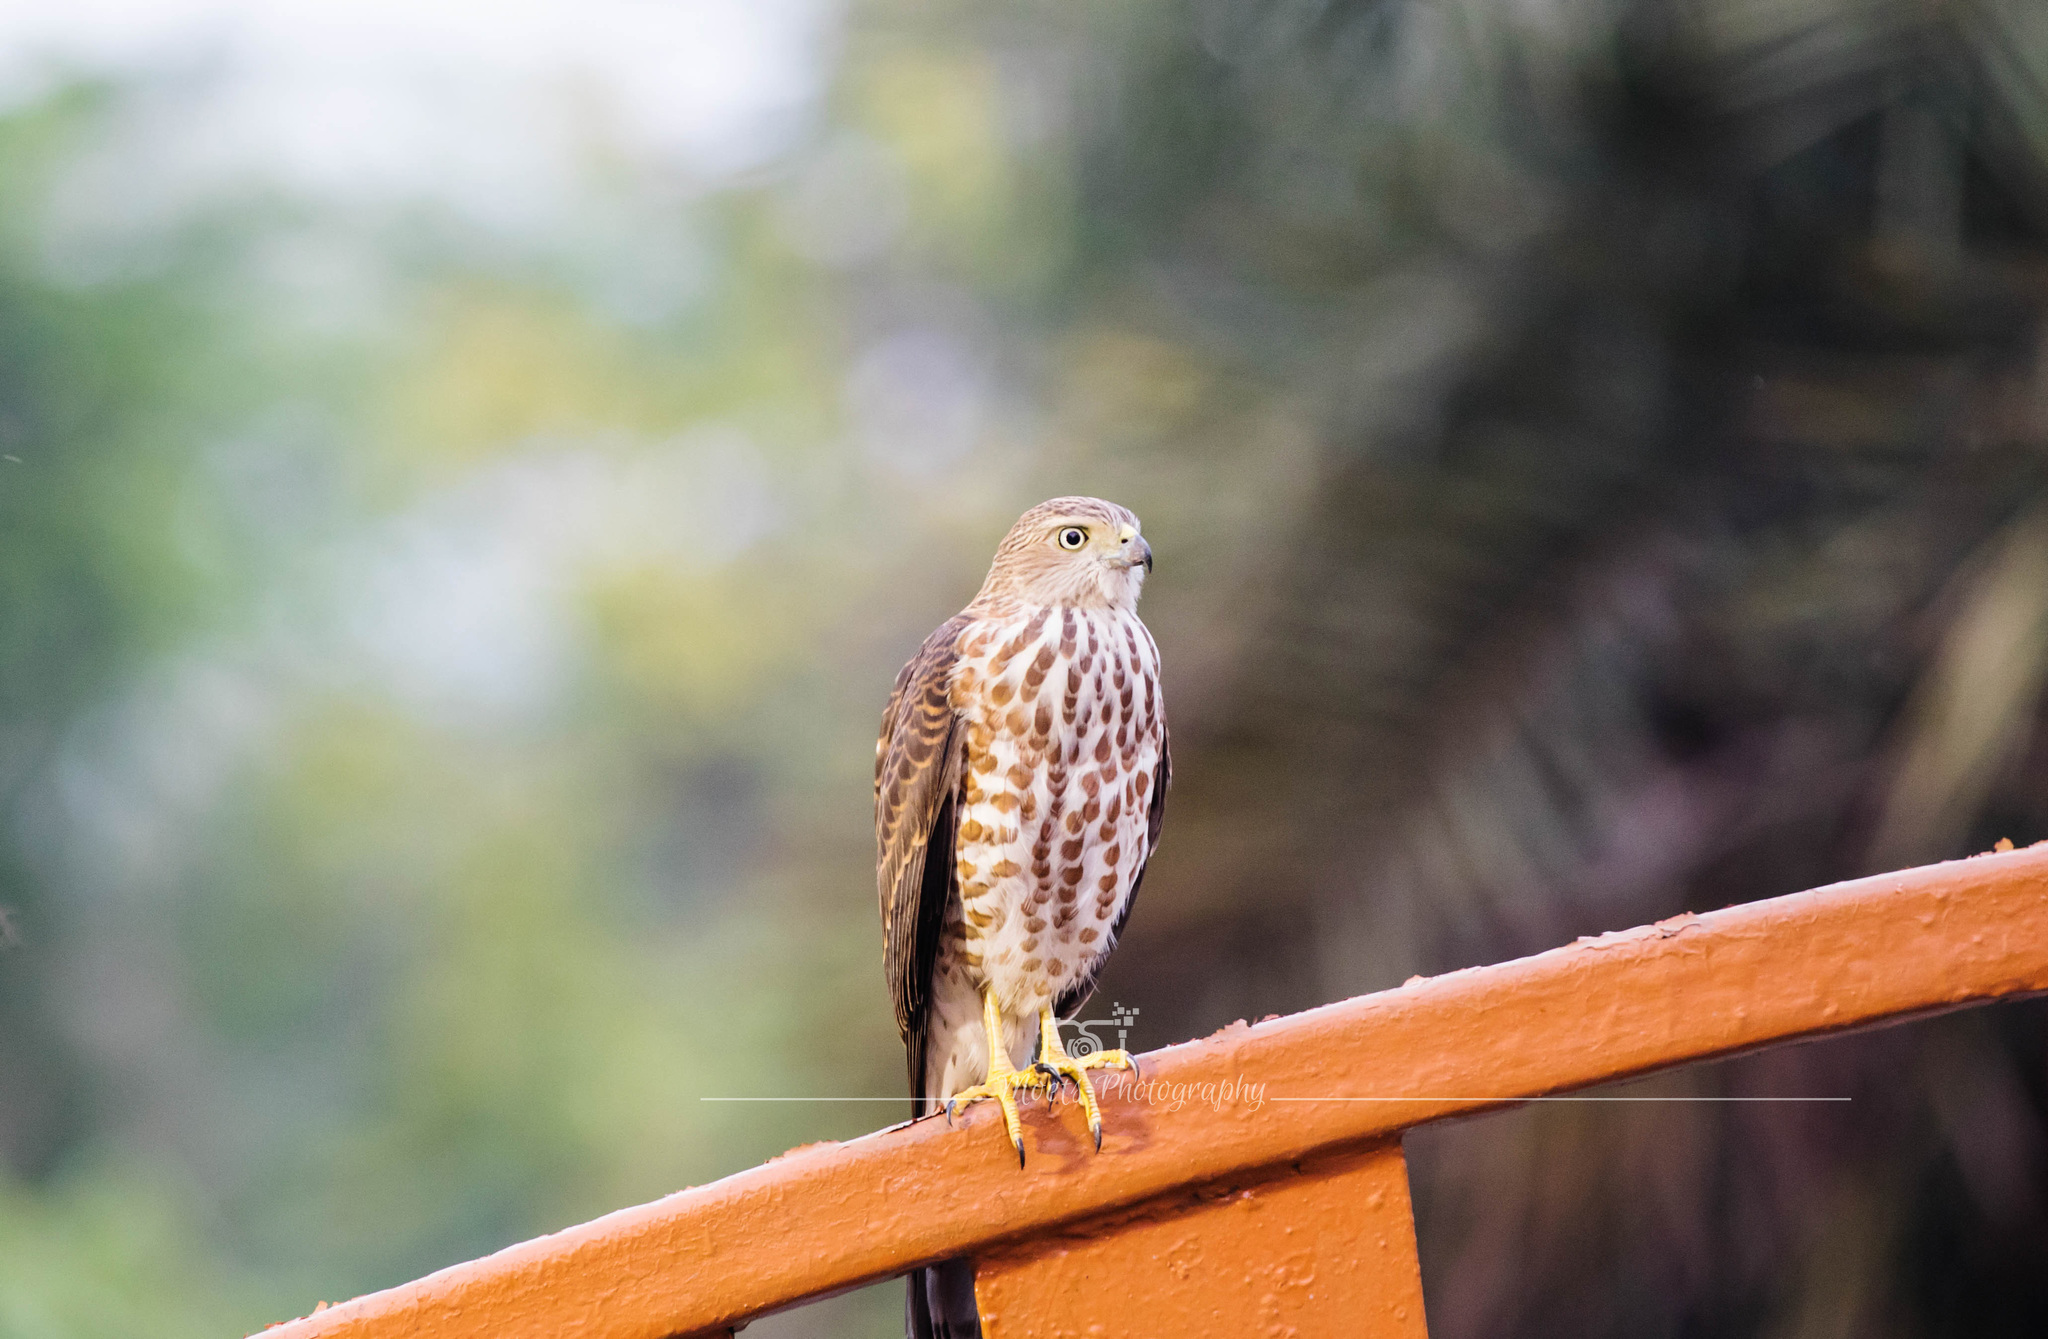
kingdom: Animalia
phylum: Chordata
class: Aves
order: Accipitriformes
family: Accipitridae
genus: Accipiter
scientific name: Accipiter badius
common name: Shikra
